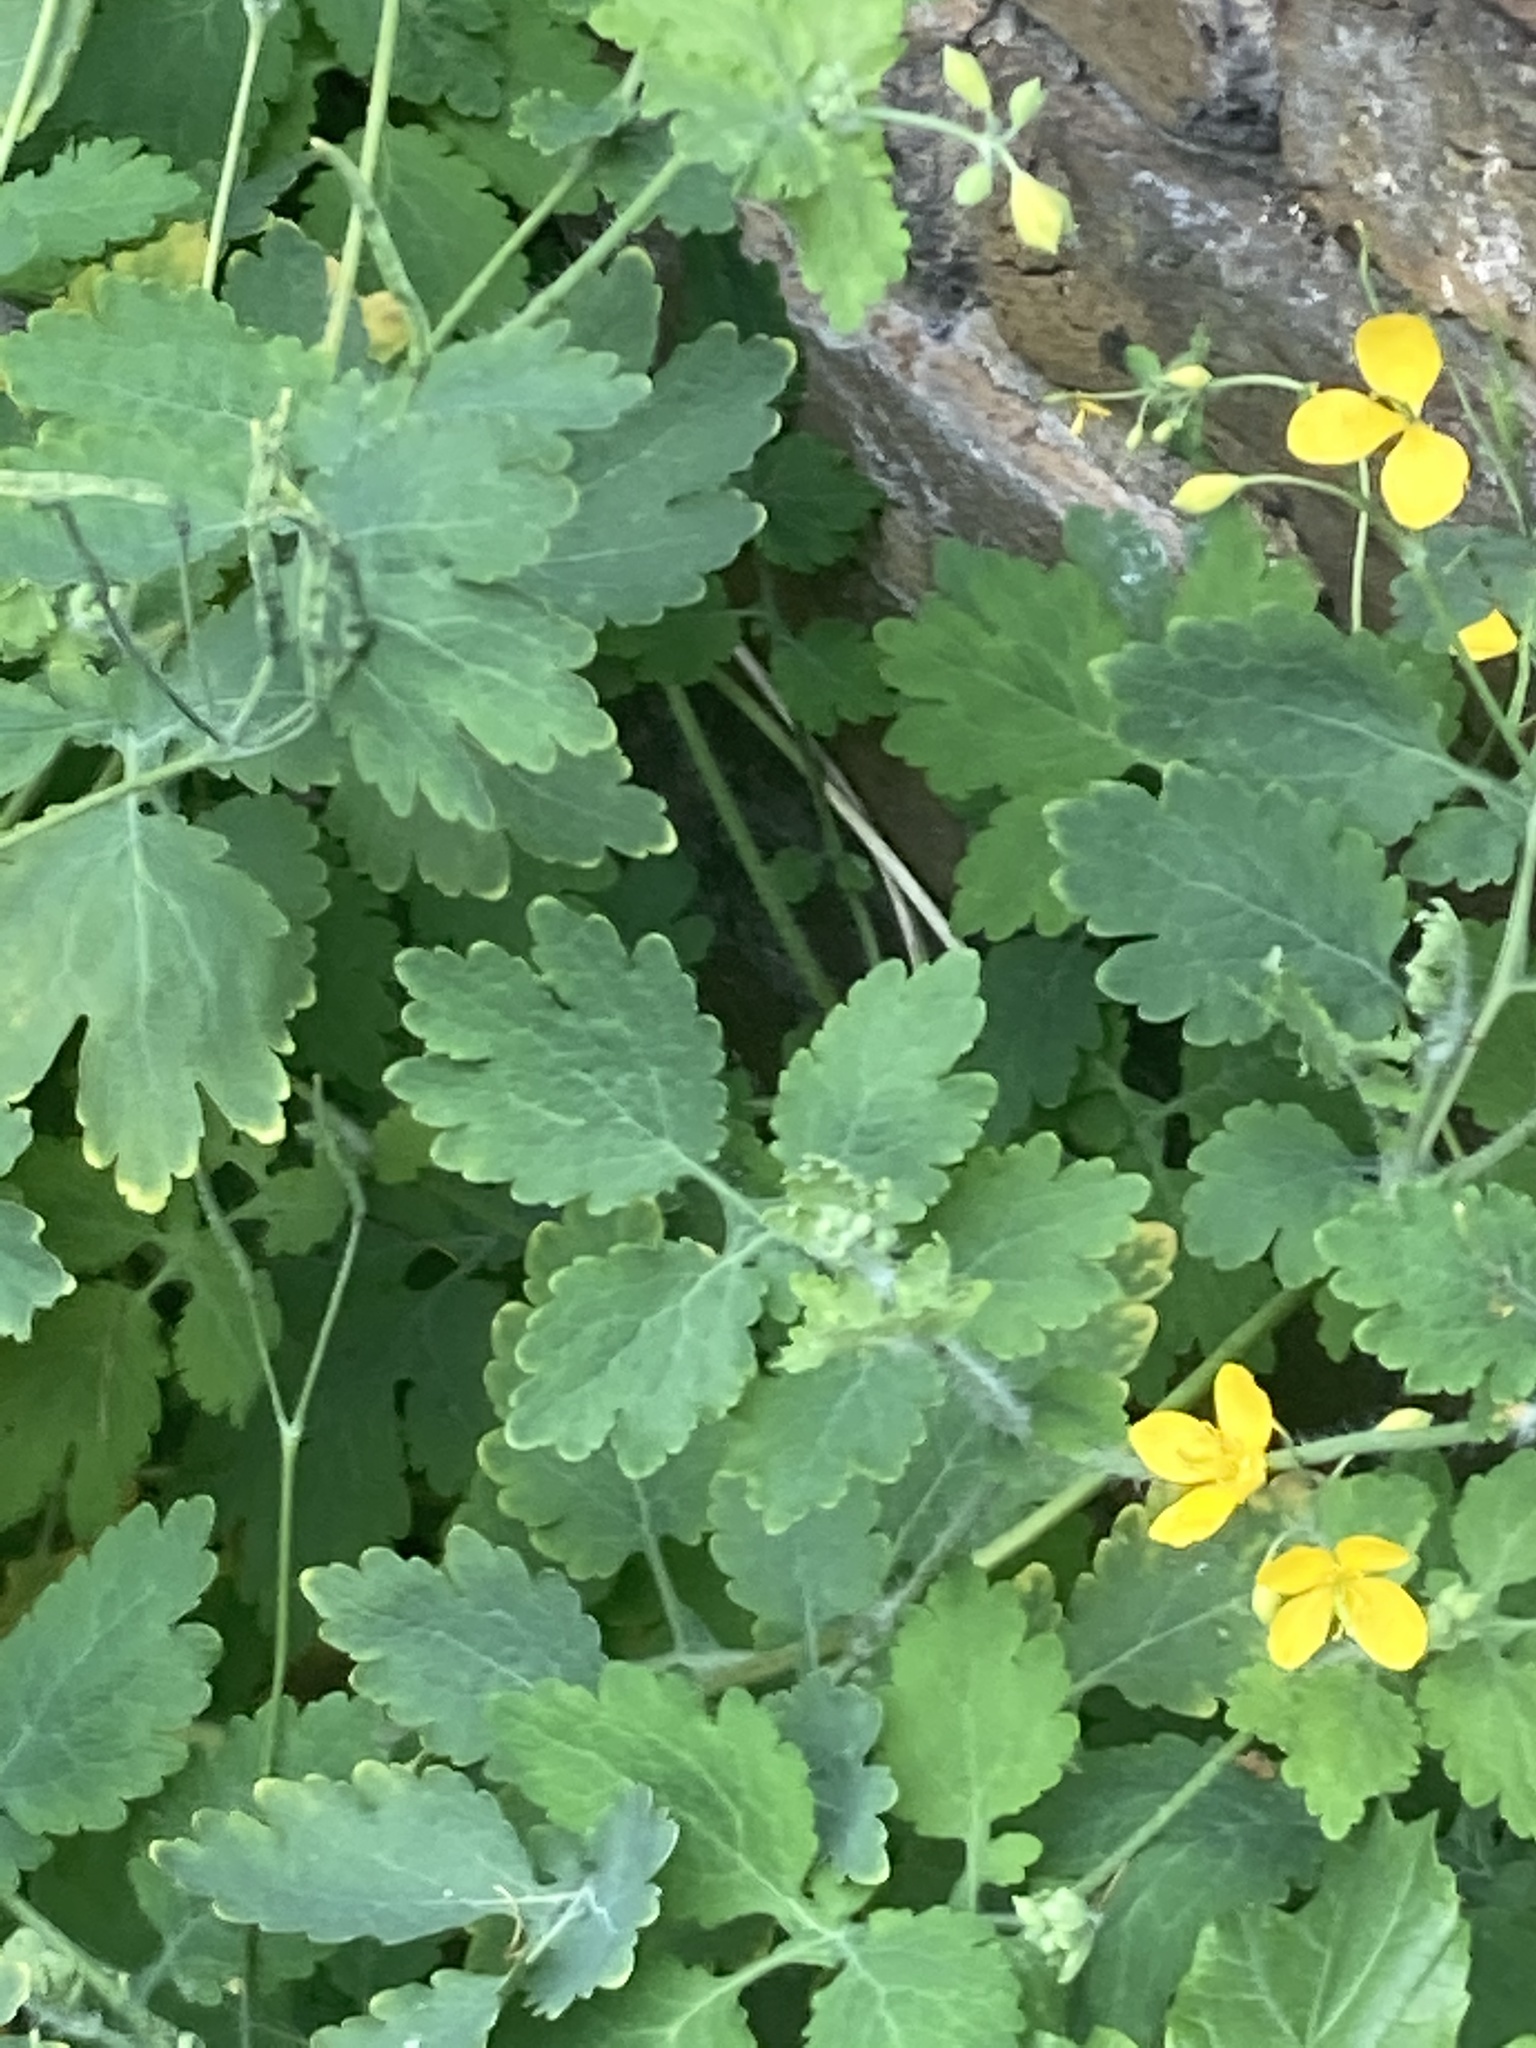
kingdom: Plantae
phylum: Tracheophyta
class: Magnoliopsida
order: Ranunculales
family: Papaveraceae
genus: Chelidonium
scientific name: Chelidonium majus
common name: Greater celandine
